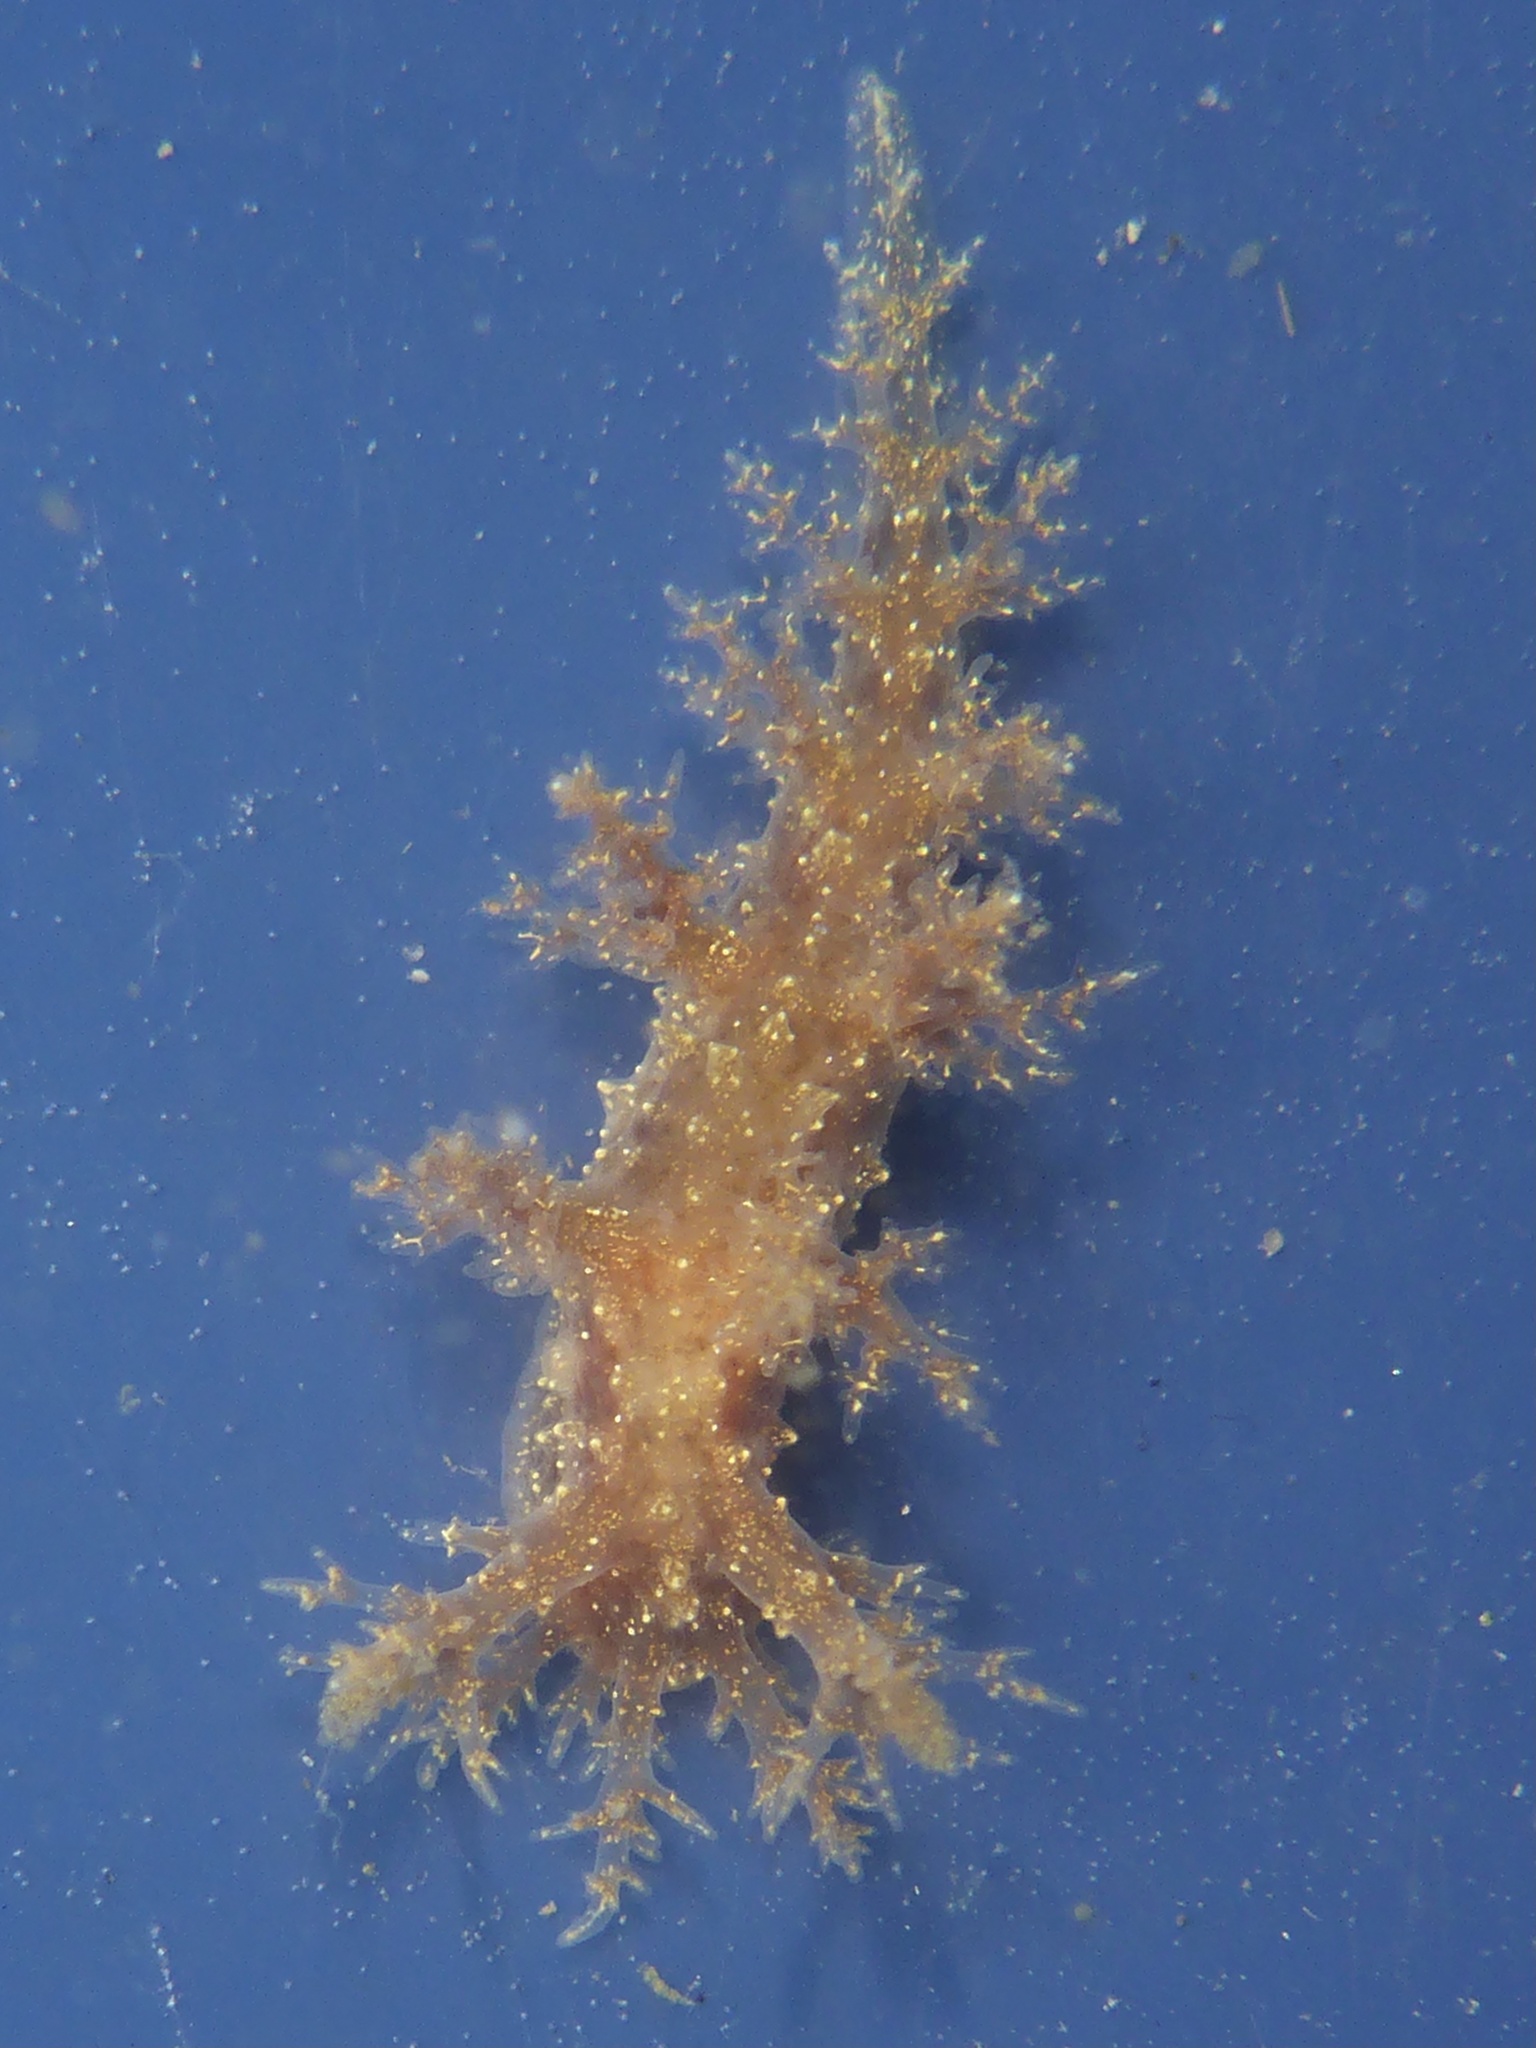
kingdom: Animalia
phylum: Mollusca
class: Gastropoda
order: Nudibranchia
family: Dendronotidae
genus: Dendronotus
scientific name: Dendronotus venustus
